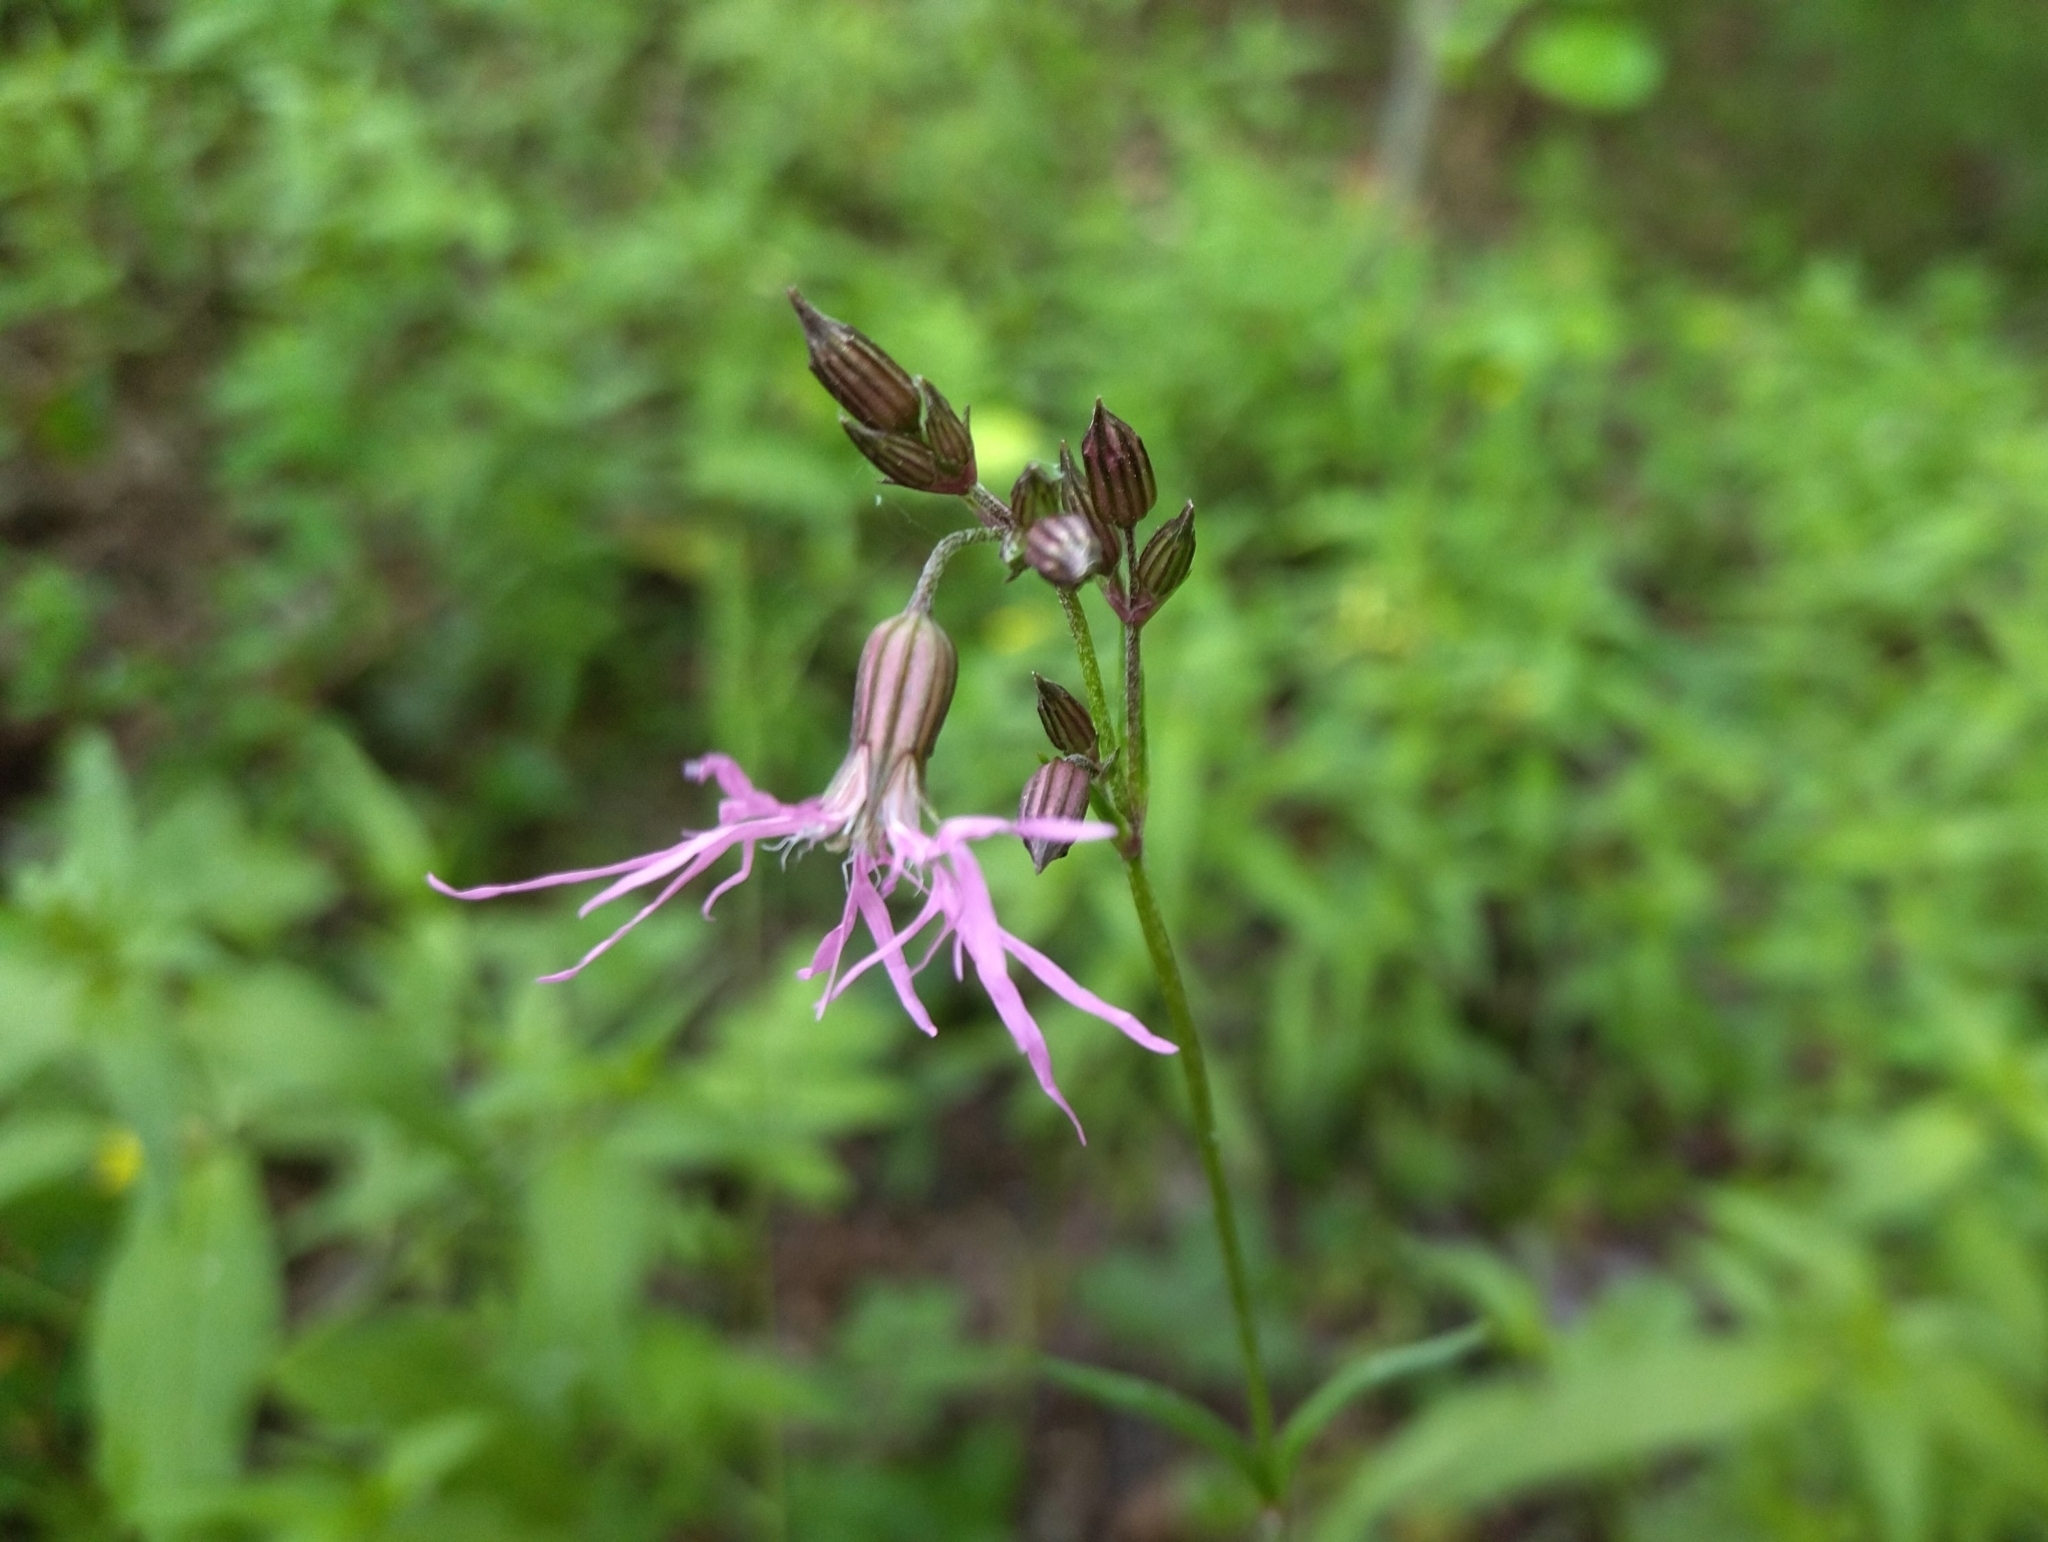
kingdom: Plantae
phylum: Tracheophyta
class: Magnoliopsida
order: Caryophyllales
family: Caryophyllaceae
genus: Silene
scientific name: Silene flos-cuculi
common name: Ragged-robin
